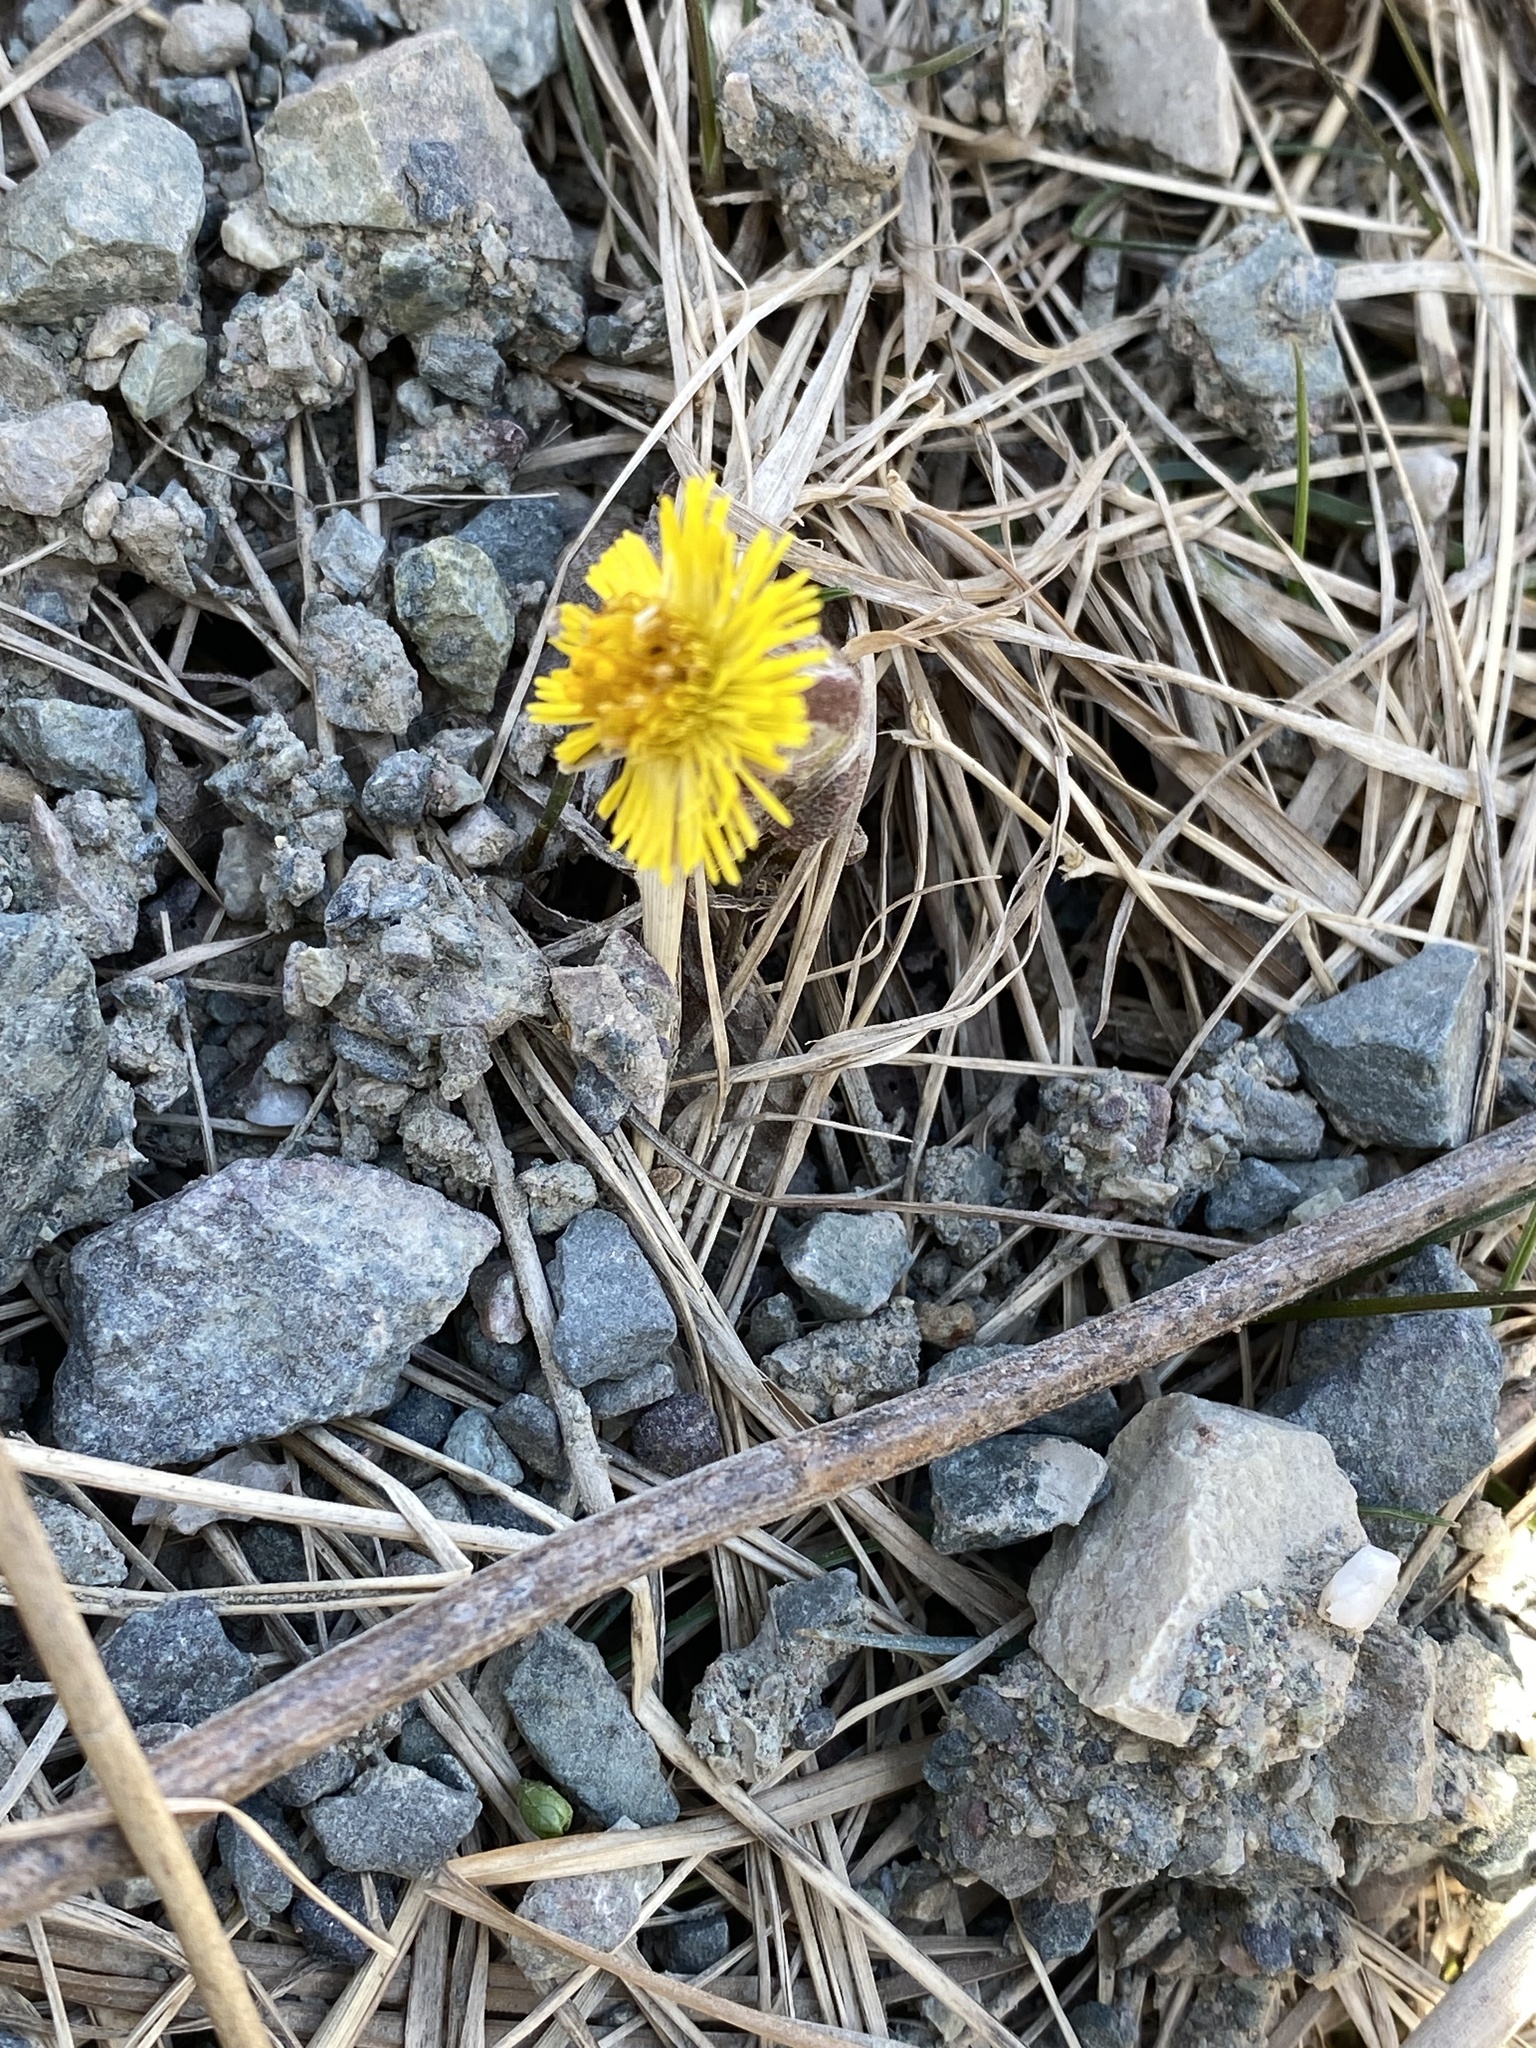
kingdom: Plantae
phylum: Tracheophyta
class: Magnoliopsida
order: Asterales
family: Asteraceae
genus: Tussilago
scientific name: Tussilago farfara
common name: Coltsfoot
